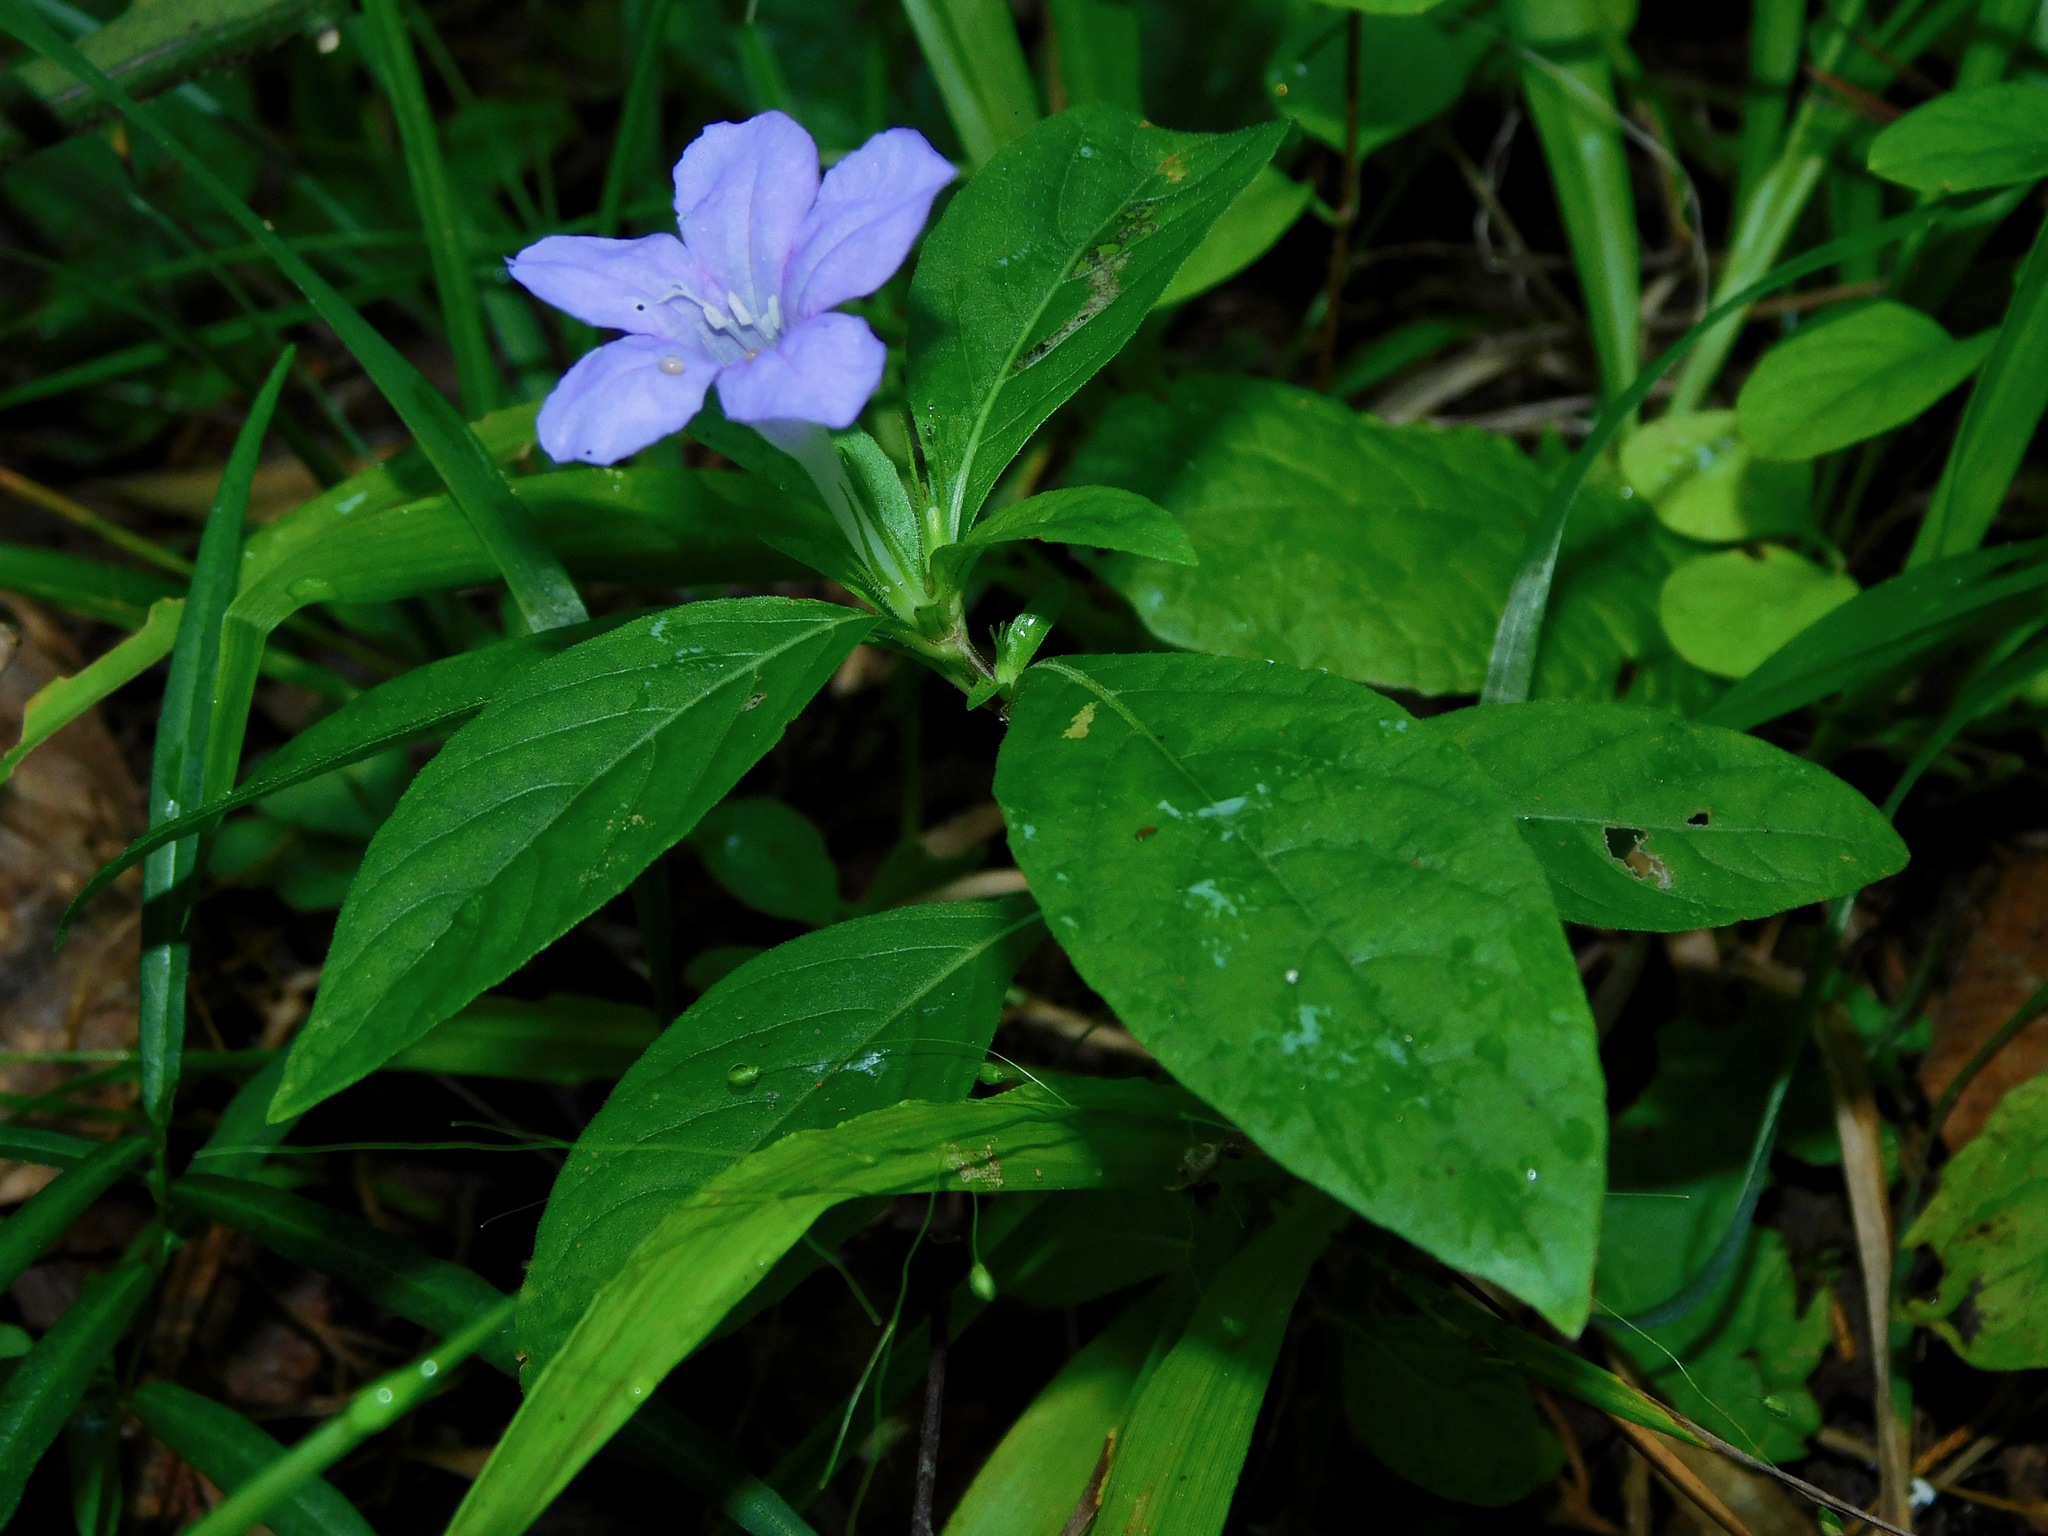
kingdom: Plantae
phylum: Tracheophyta
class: Magnoliopsida
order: Lamiales
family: Acanthaceae
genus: Ruellia
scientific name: Ruellia caroliniensis
